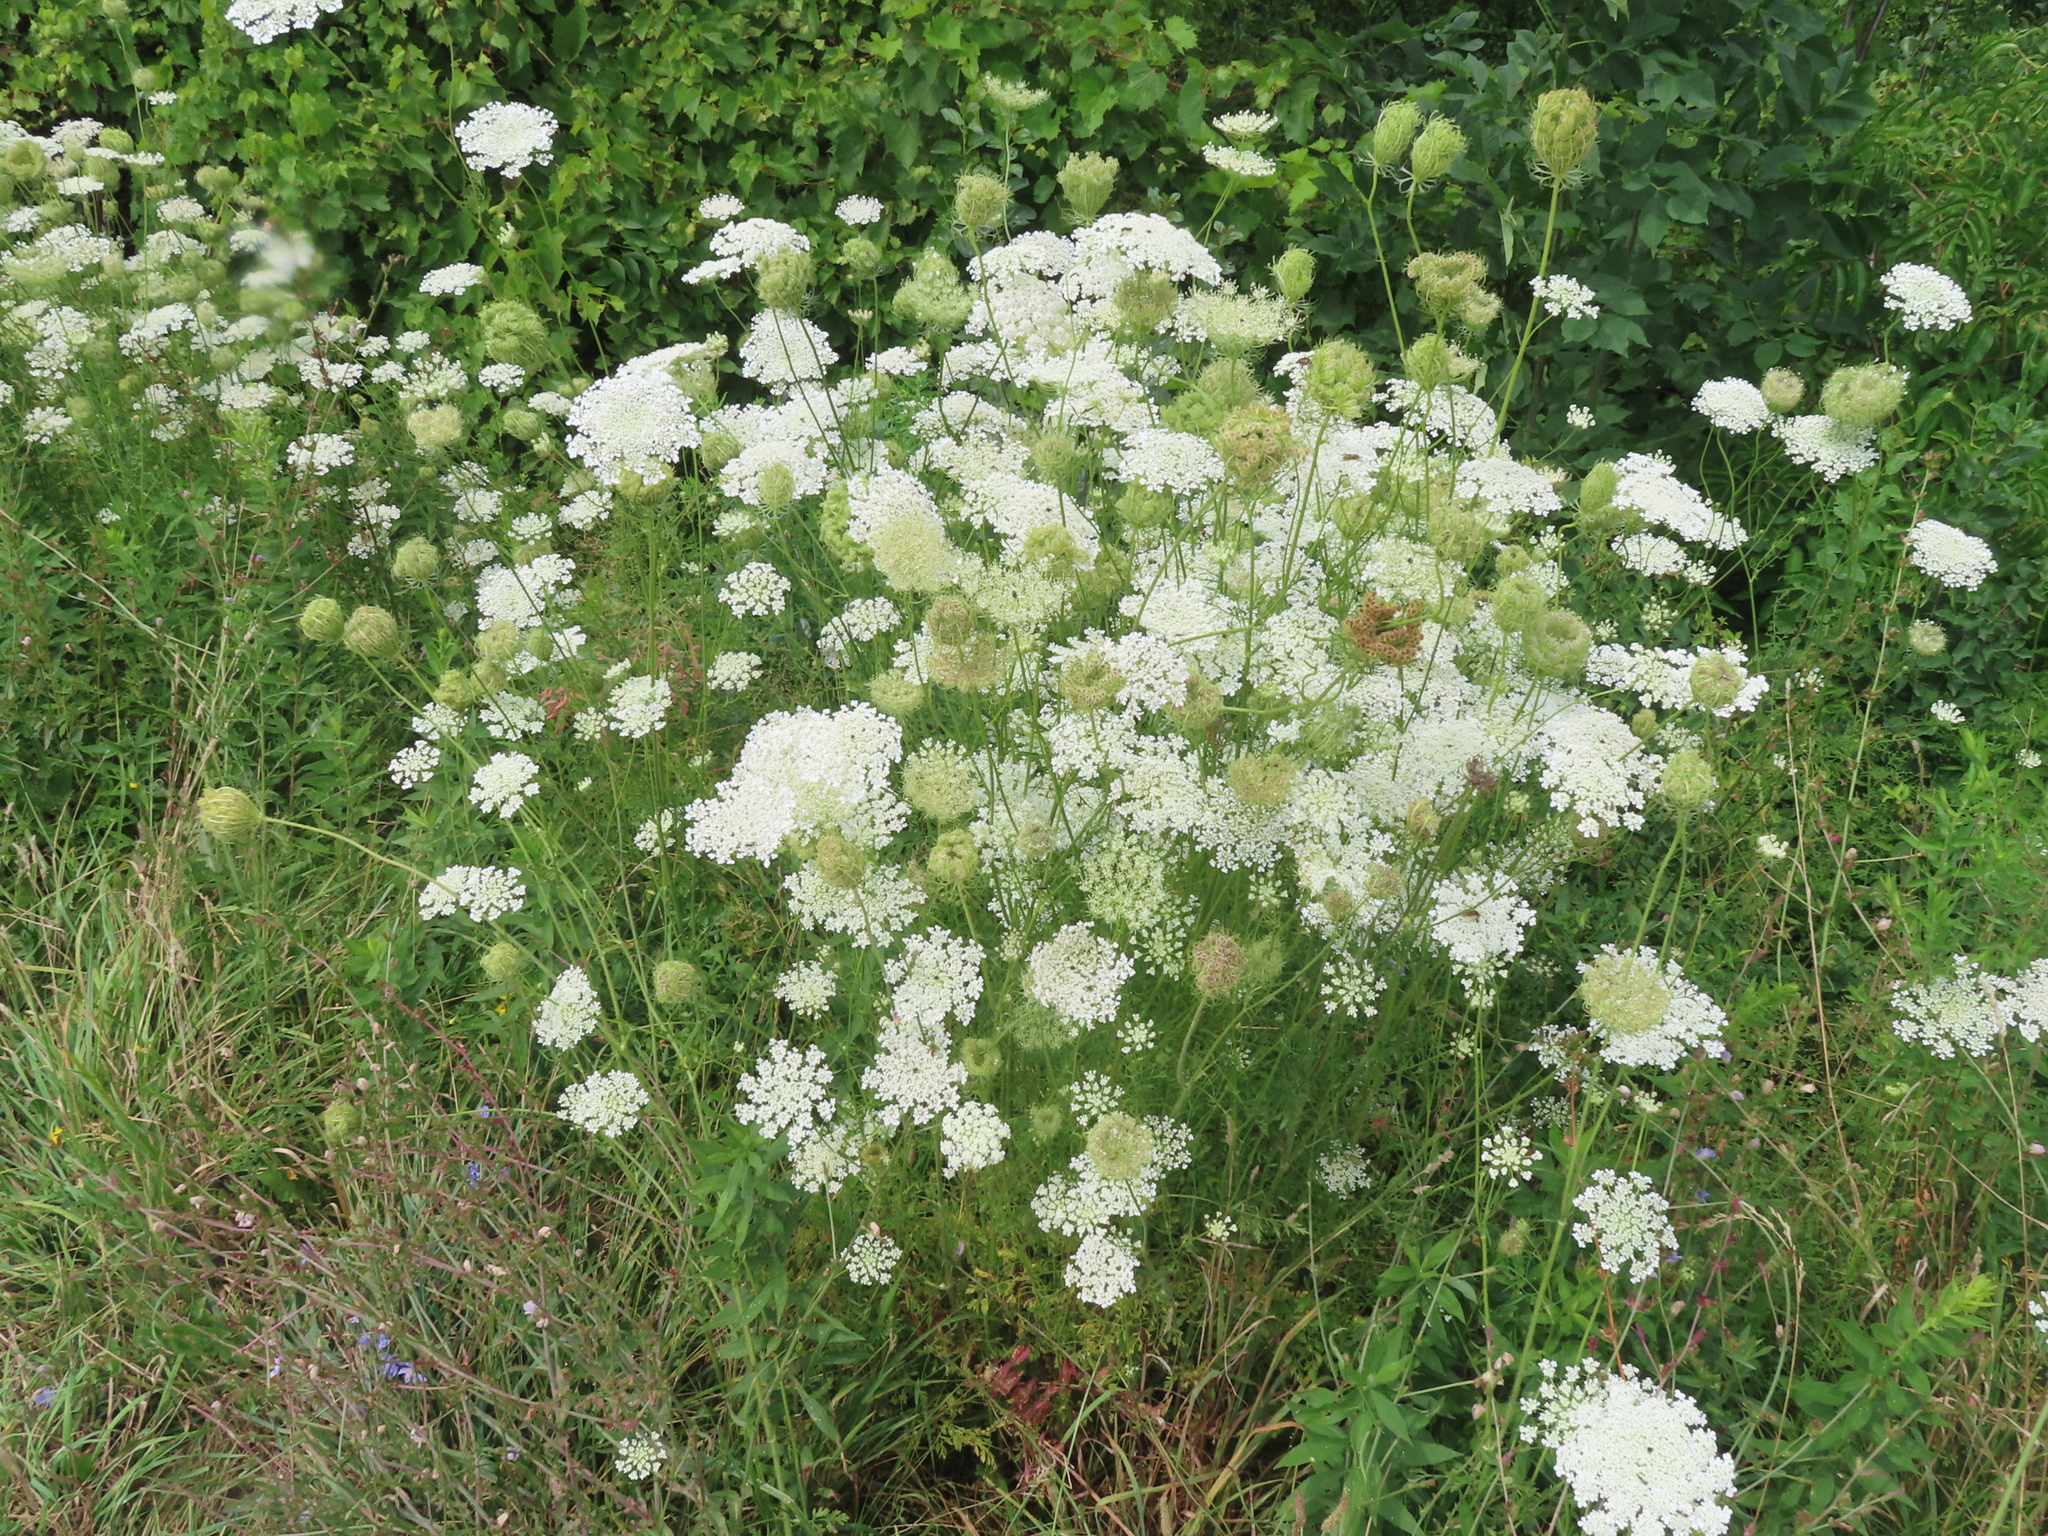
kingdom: Plantae
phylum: Tracheophyta
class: Magnoliopsida
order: Apiales
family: Apiaceae
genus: Daucus
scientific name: Daucus carota
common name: Wild carrot
